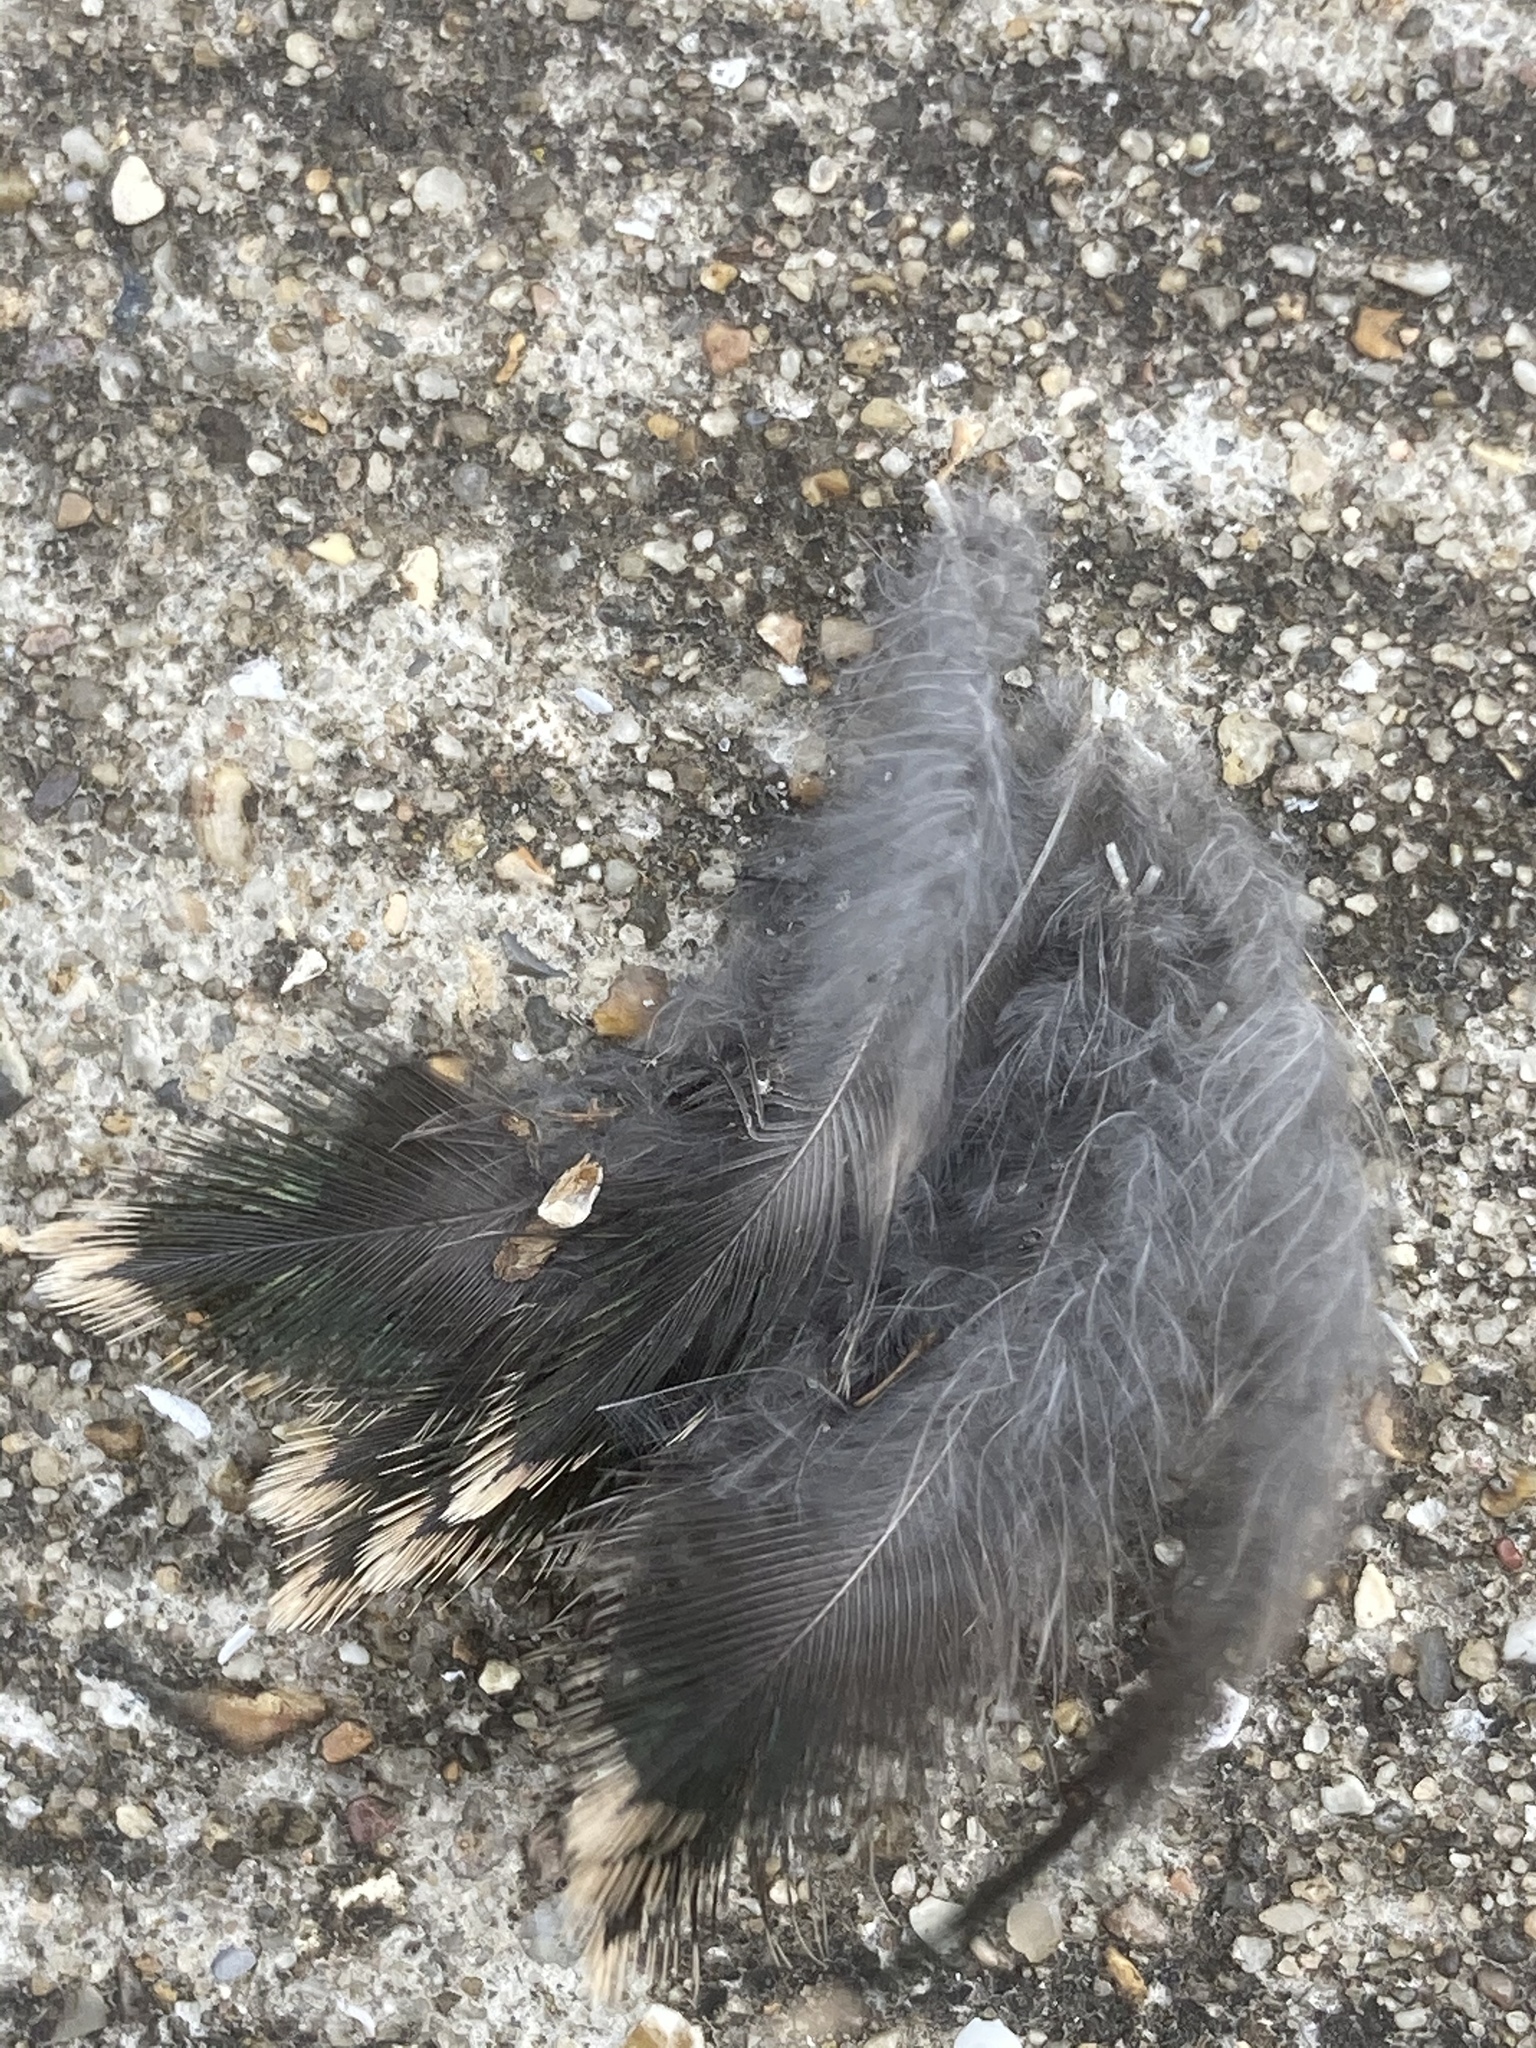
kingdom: Animalia
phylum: Chordata
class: Aves
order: Passeriformes
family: Sturnidae
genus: Sturnus
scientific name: Sturnus vulgaris
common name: Common starling
